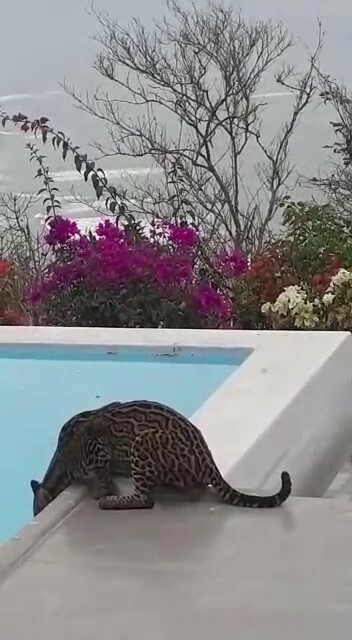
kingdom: Animalia
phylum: Chordata
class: Mammalia
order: Carnivora
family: Felidae
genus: Leopardus
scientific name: Leopardus pardalis
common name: Ocelot
